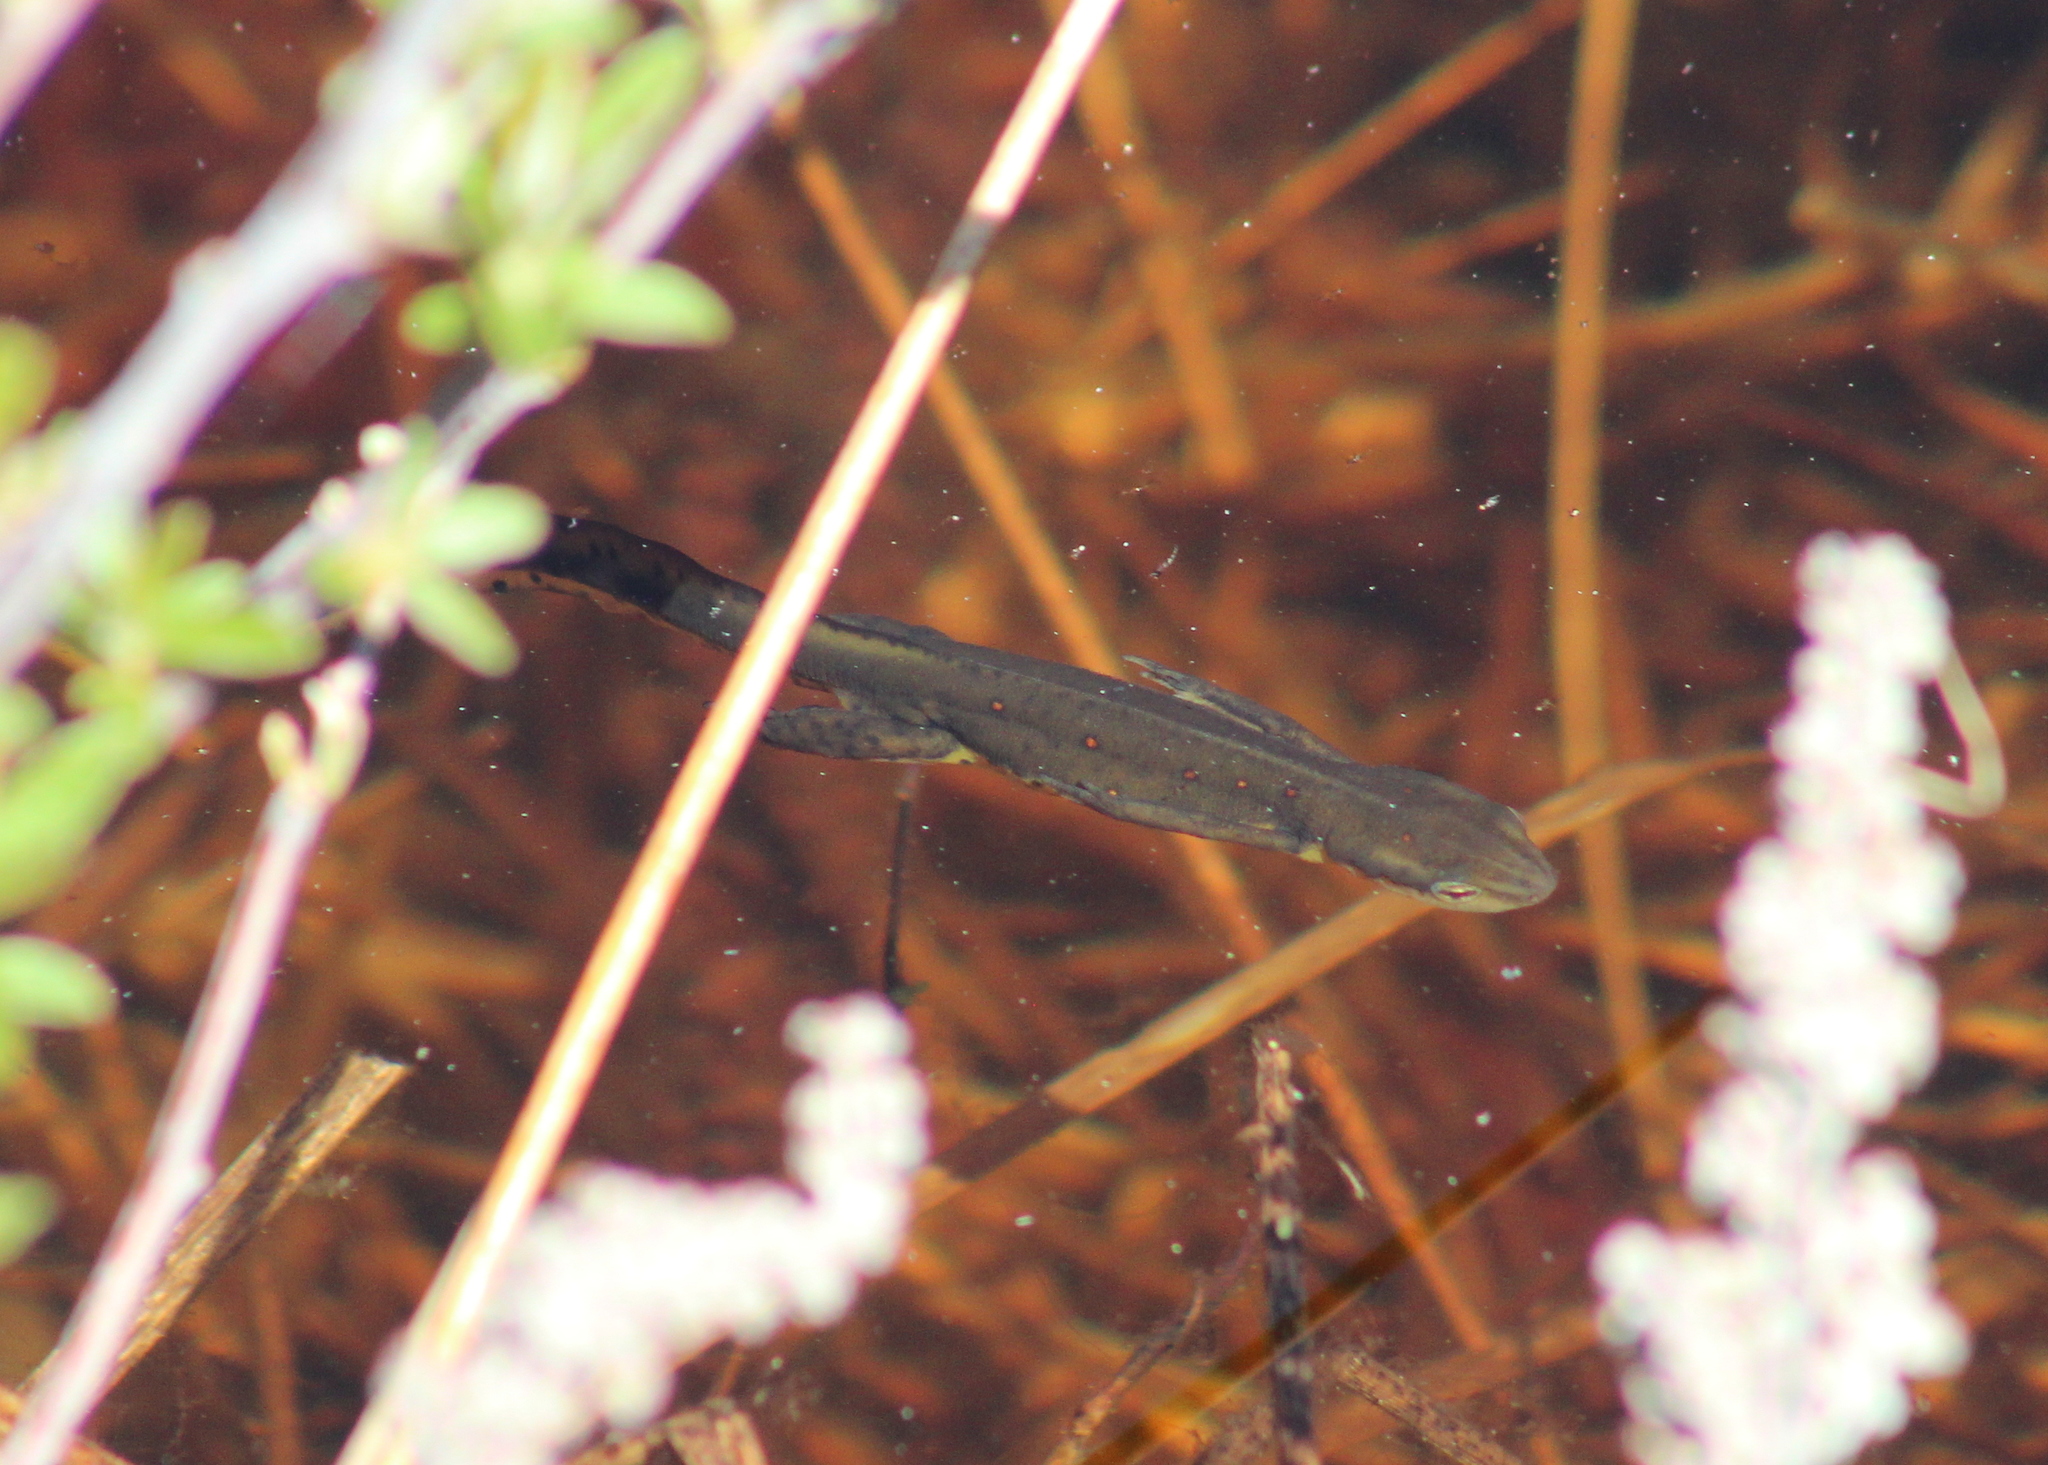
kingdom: Animalia
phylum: Chordata
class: Amphibia
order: Caudata
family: Salamandridae
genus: Notophthalmus
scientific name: Notophthalmus viridescens
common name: Eastern newt
